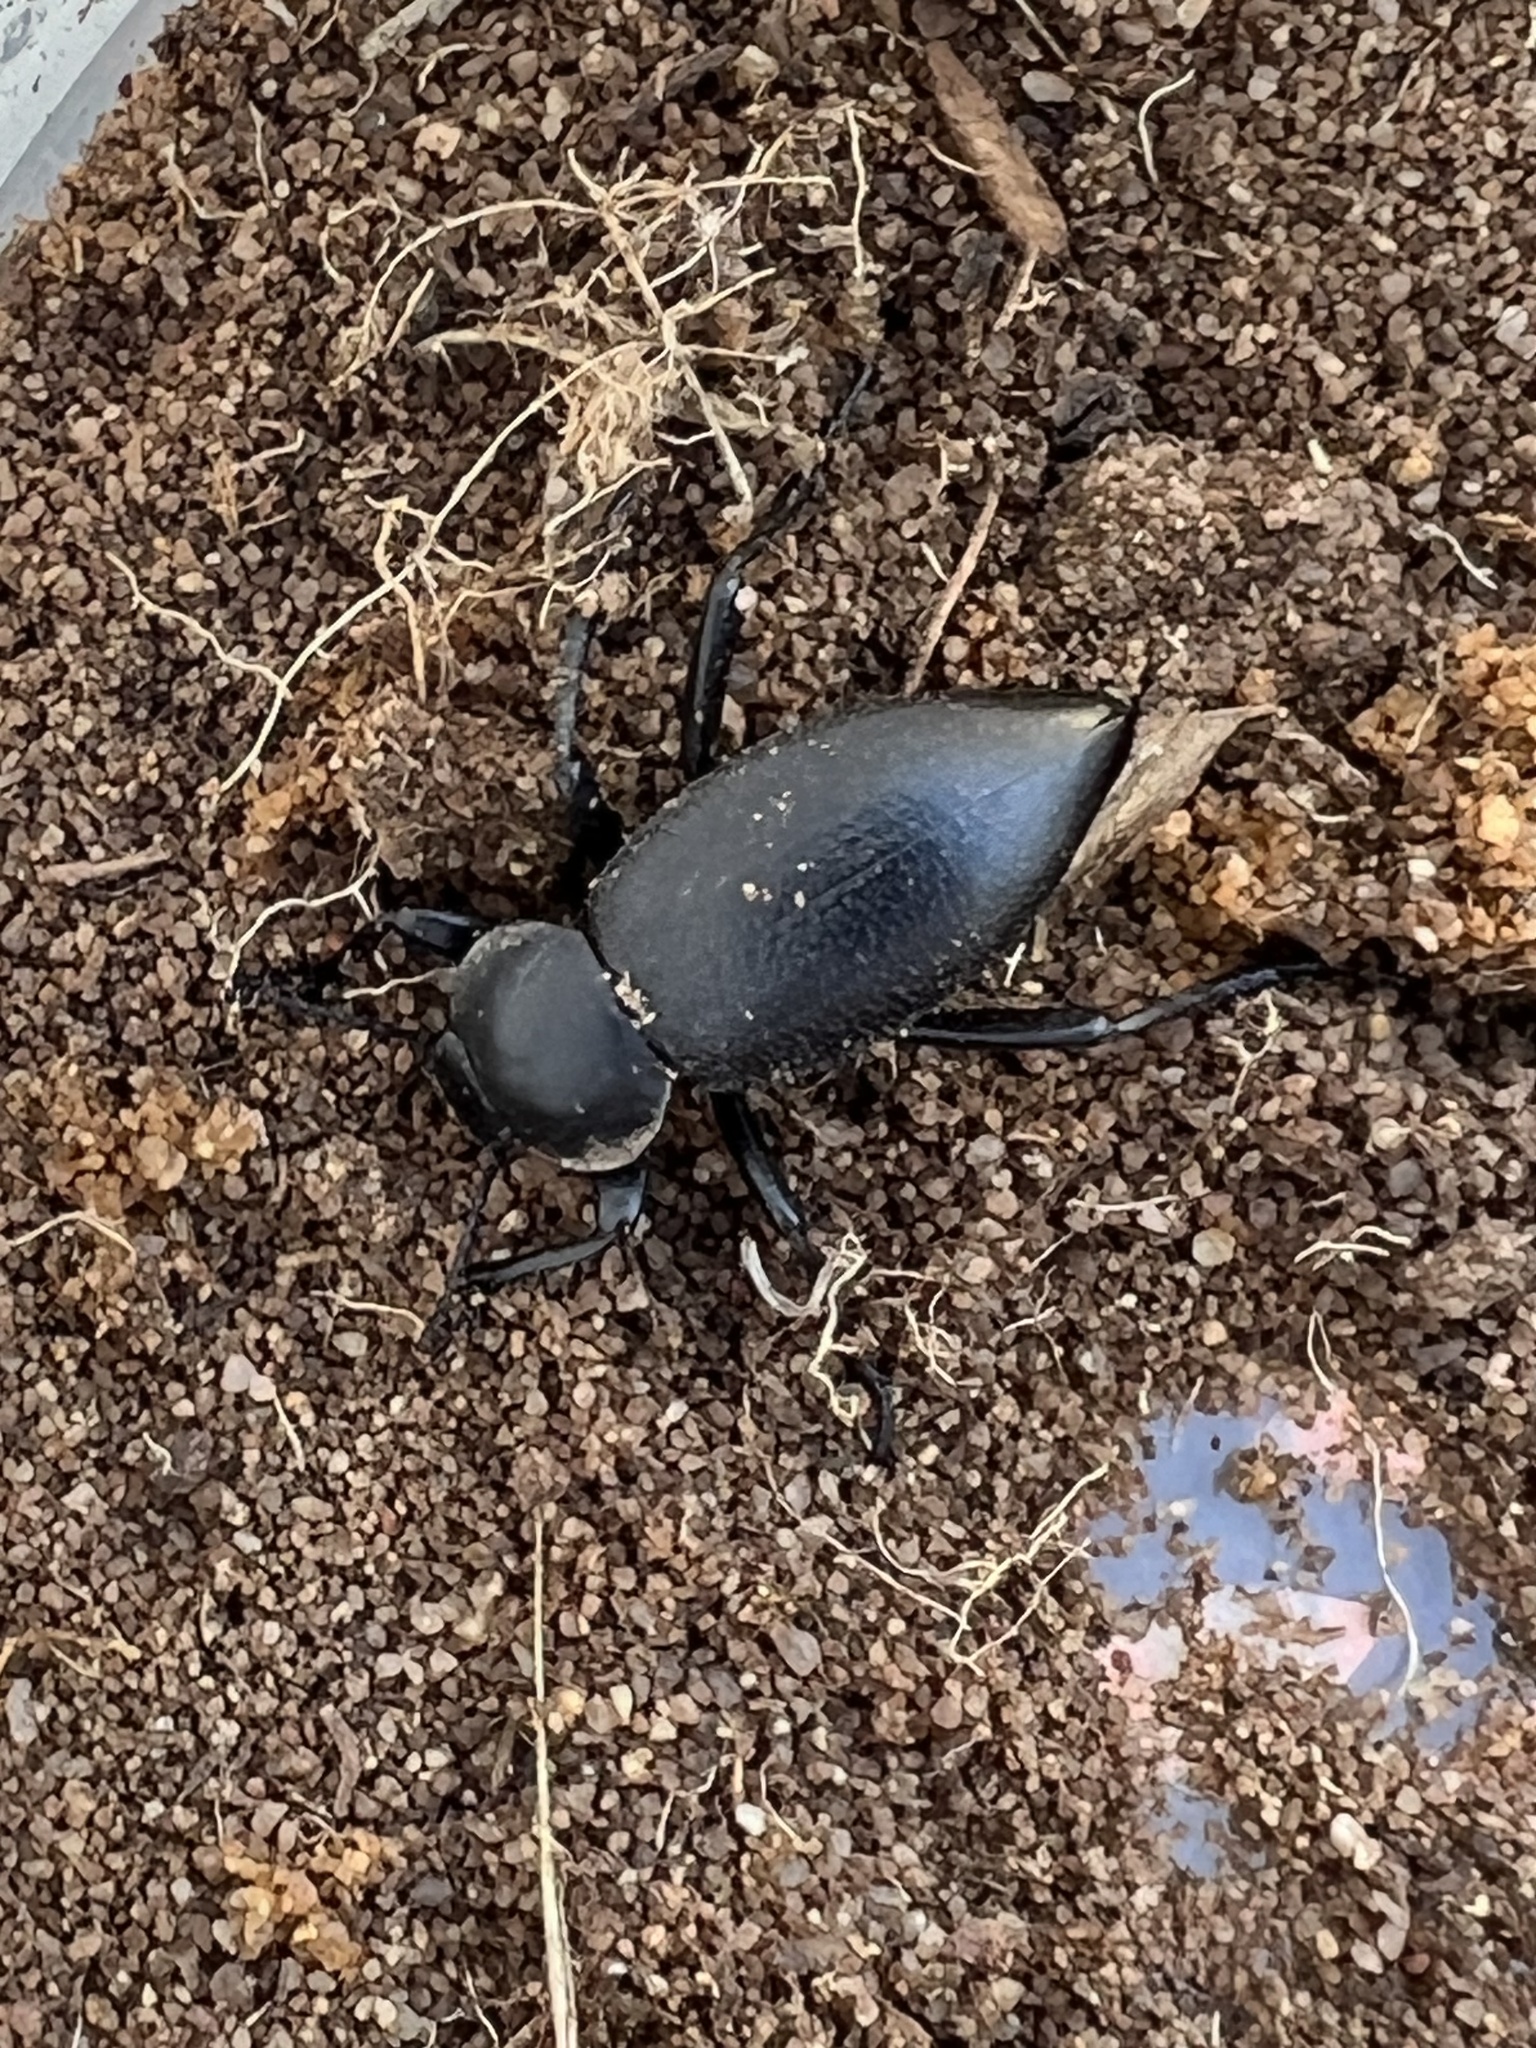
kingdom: Animalia
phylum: Arthropoda
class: Insecta
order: Coleoptera
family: Tenebrionidae
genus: Eleodes
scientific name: Eleodes marginata
